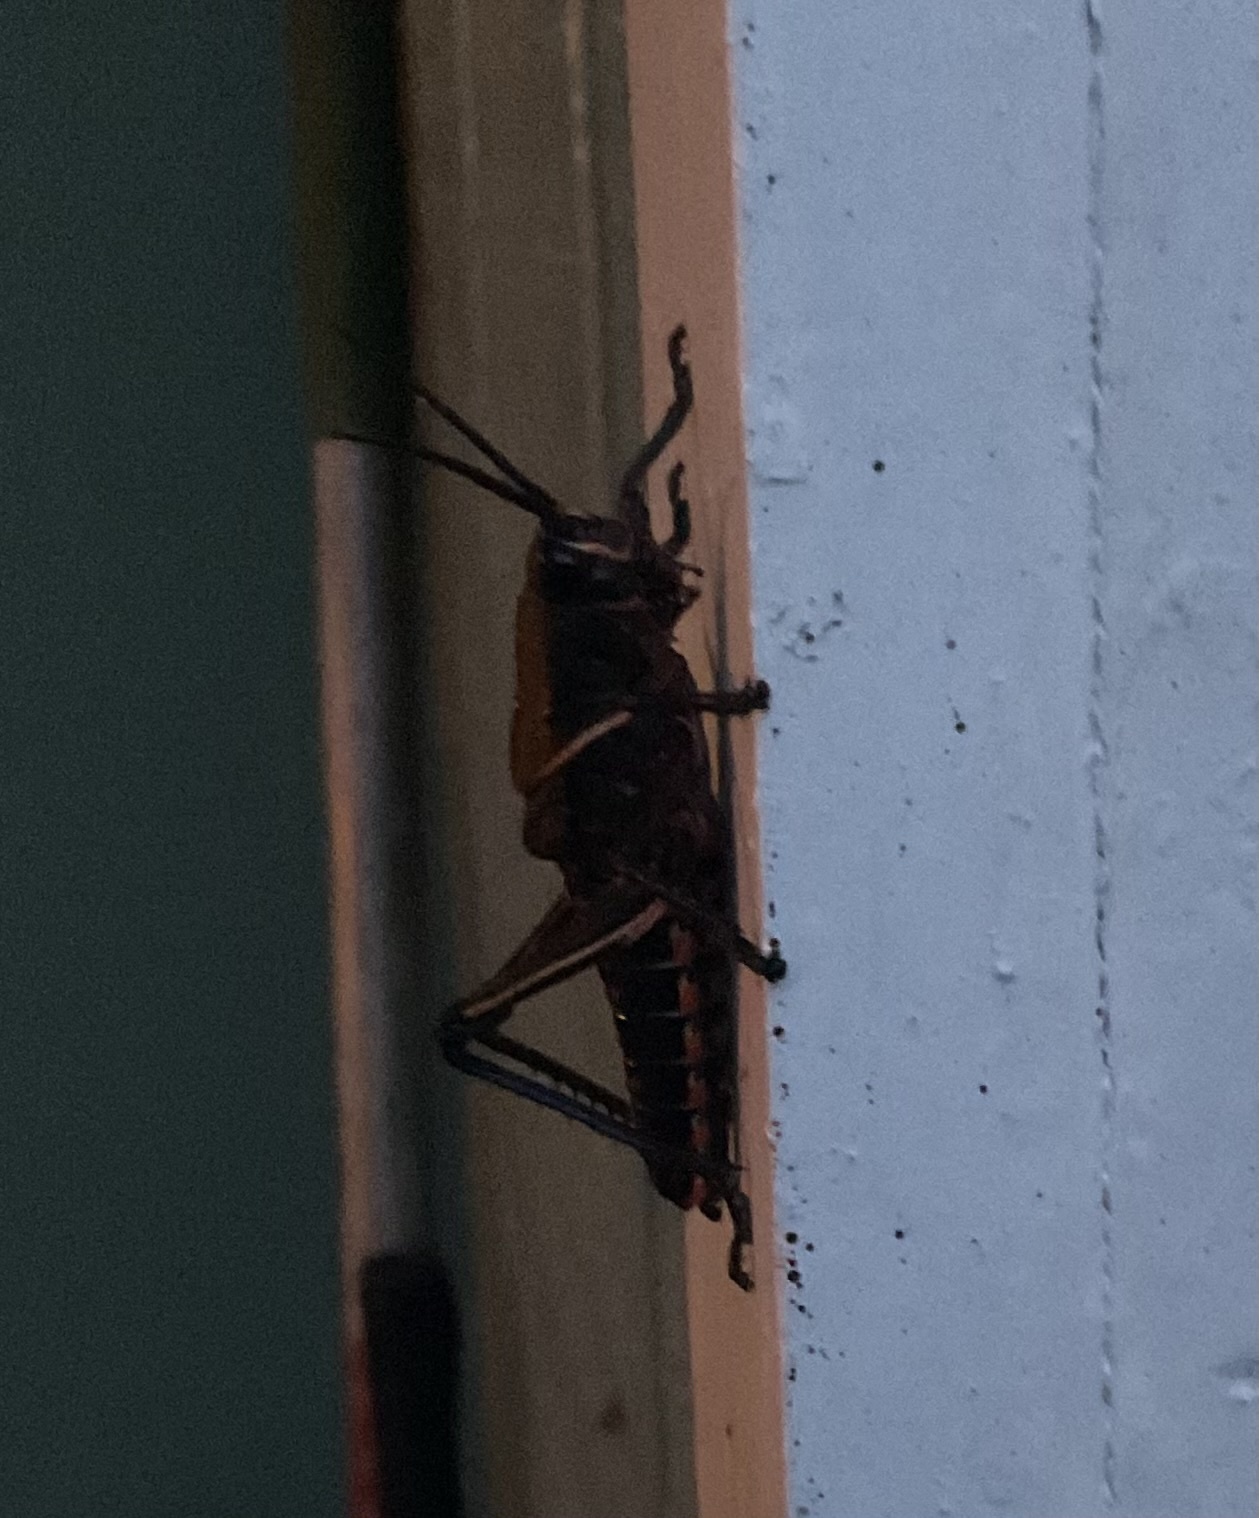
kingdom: Animalia
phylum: Arthropoda
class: Insecta
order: Orthoptera
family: Romaleidae
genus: Romalea
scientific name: Romalea microptera
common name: Eastern lubber grasshopper
